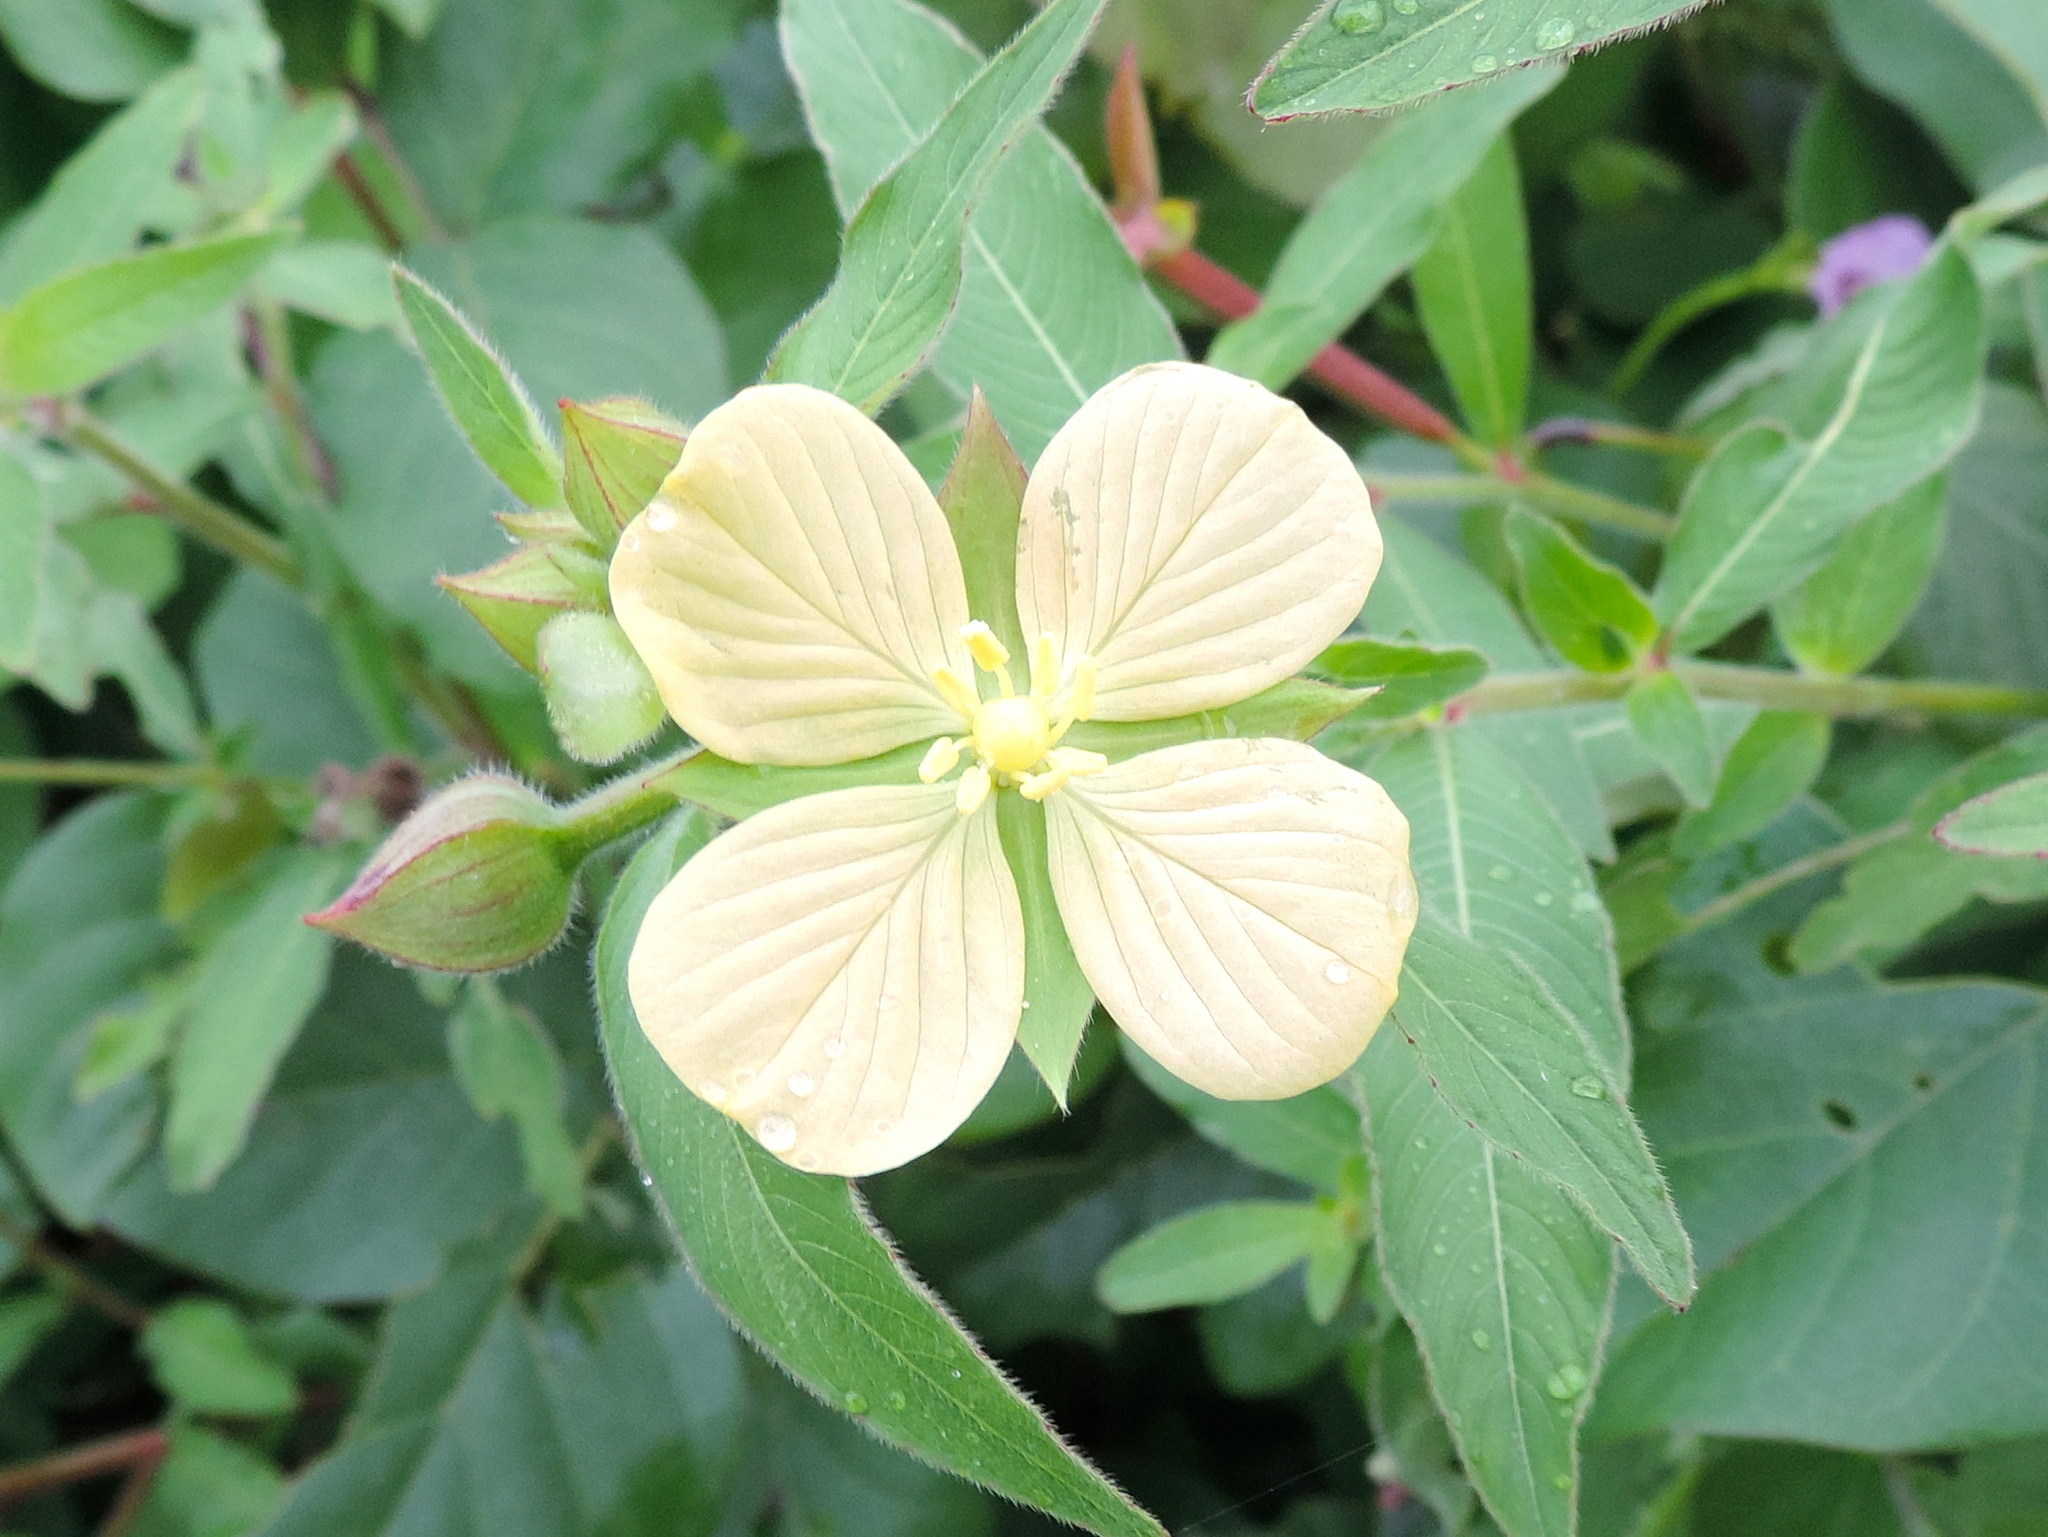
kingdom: Plantae
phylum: Tracheophyta
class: Magnoliopsida
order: Myrtales
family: Onagraceae
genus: Ludwigia
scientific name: Ludwigia octovalvis
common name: Water-primrose
